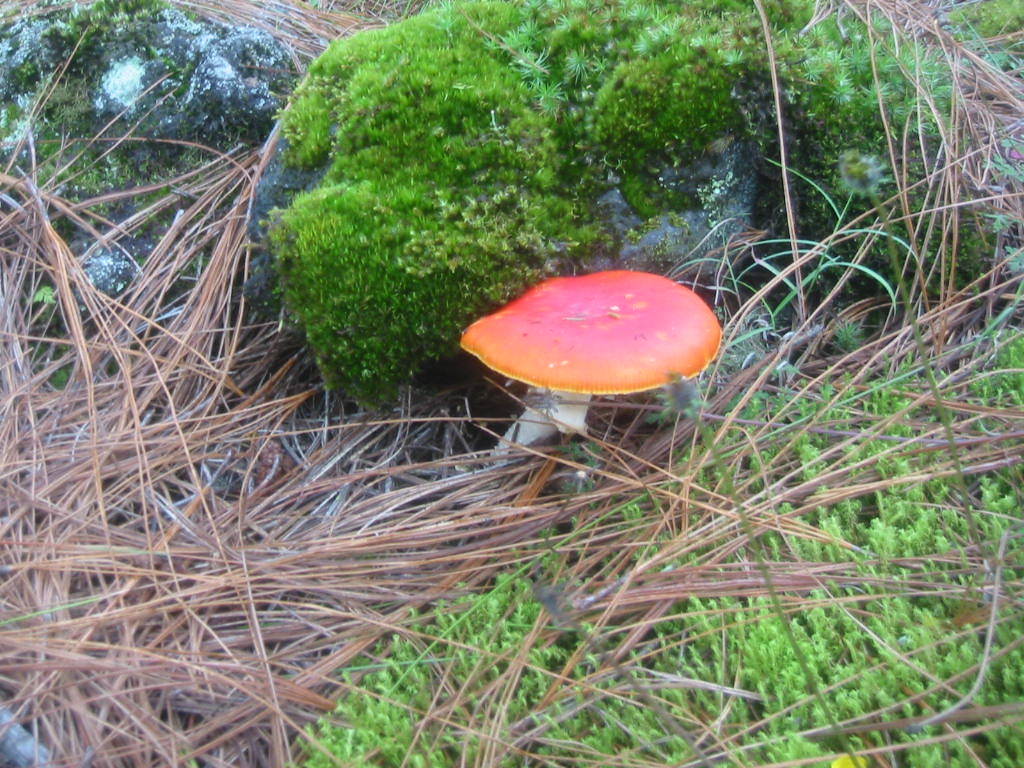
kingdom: Fungi
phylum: Basidiomycota
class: Agaricomycetes
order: Agaricales
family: Amanitaceae
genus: Amanita
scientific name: Amanita muscaria
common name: Fly agaric
